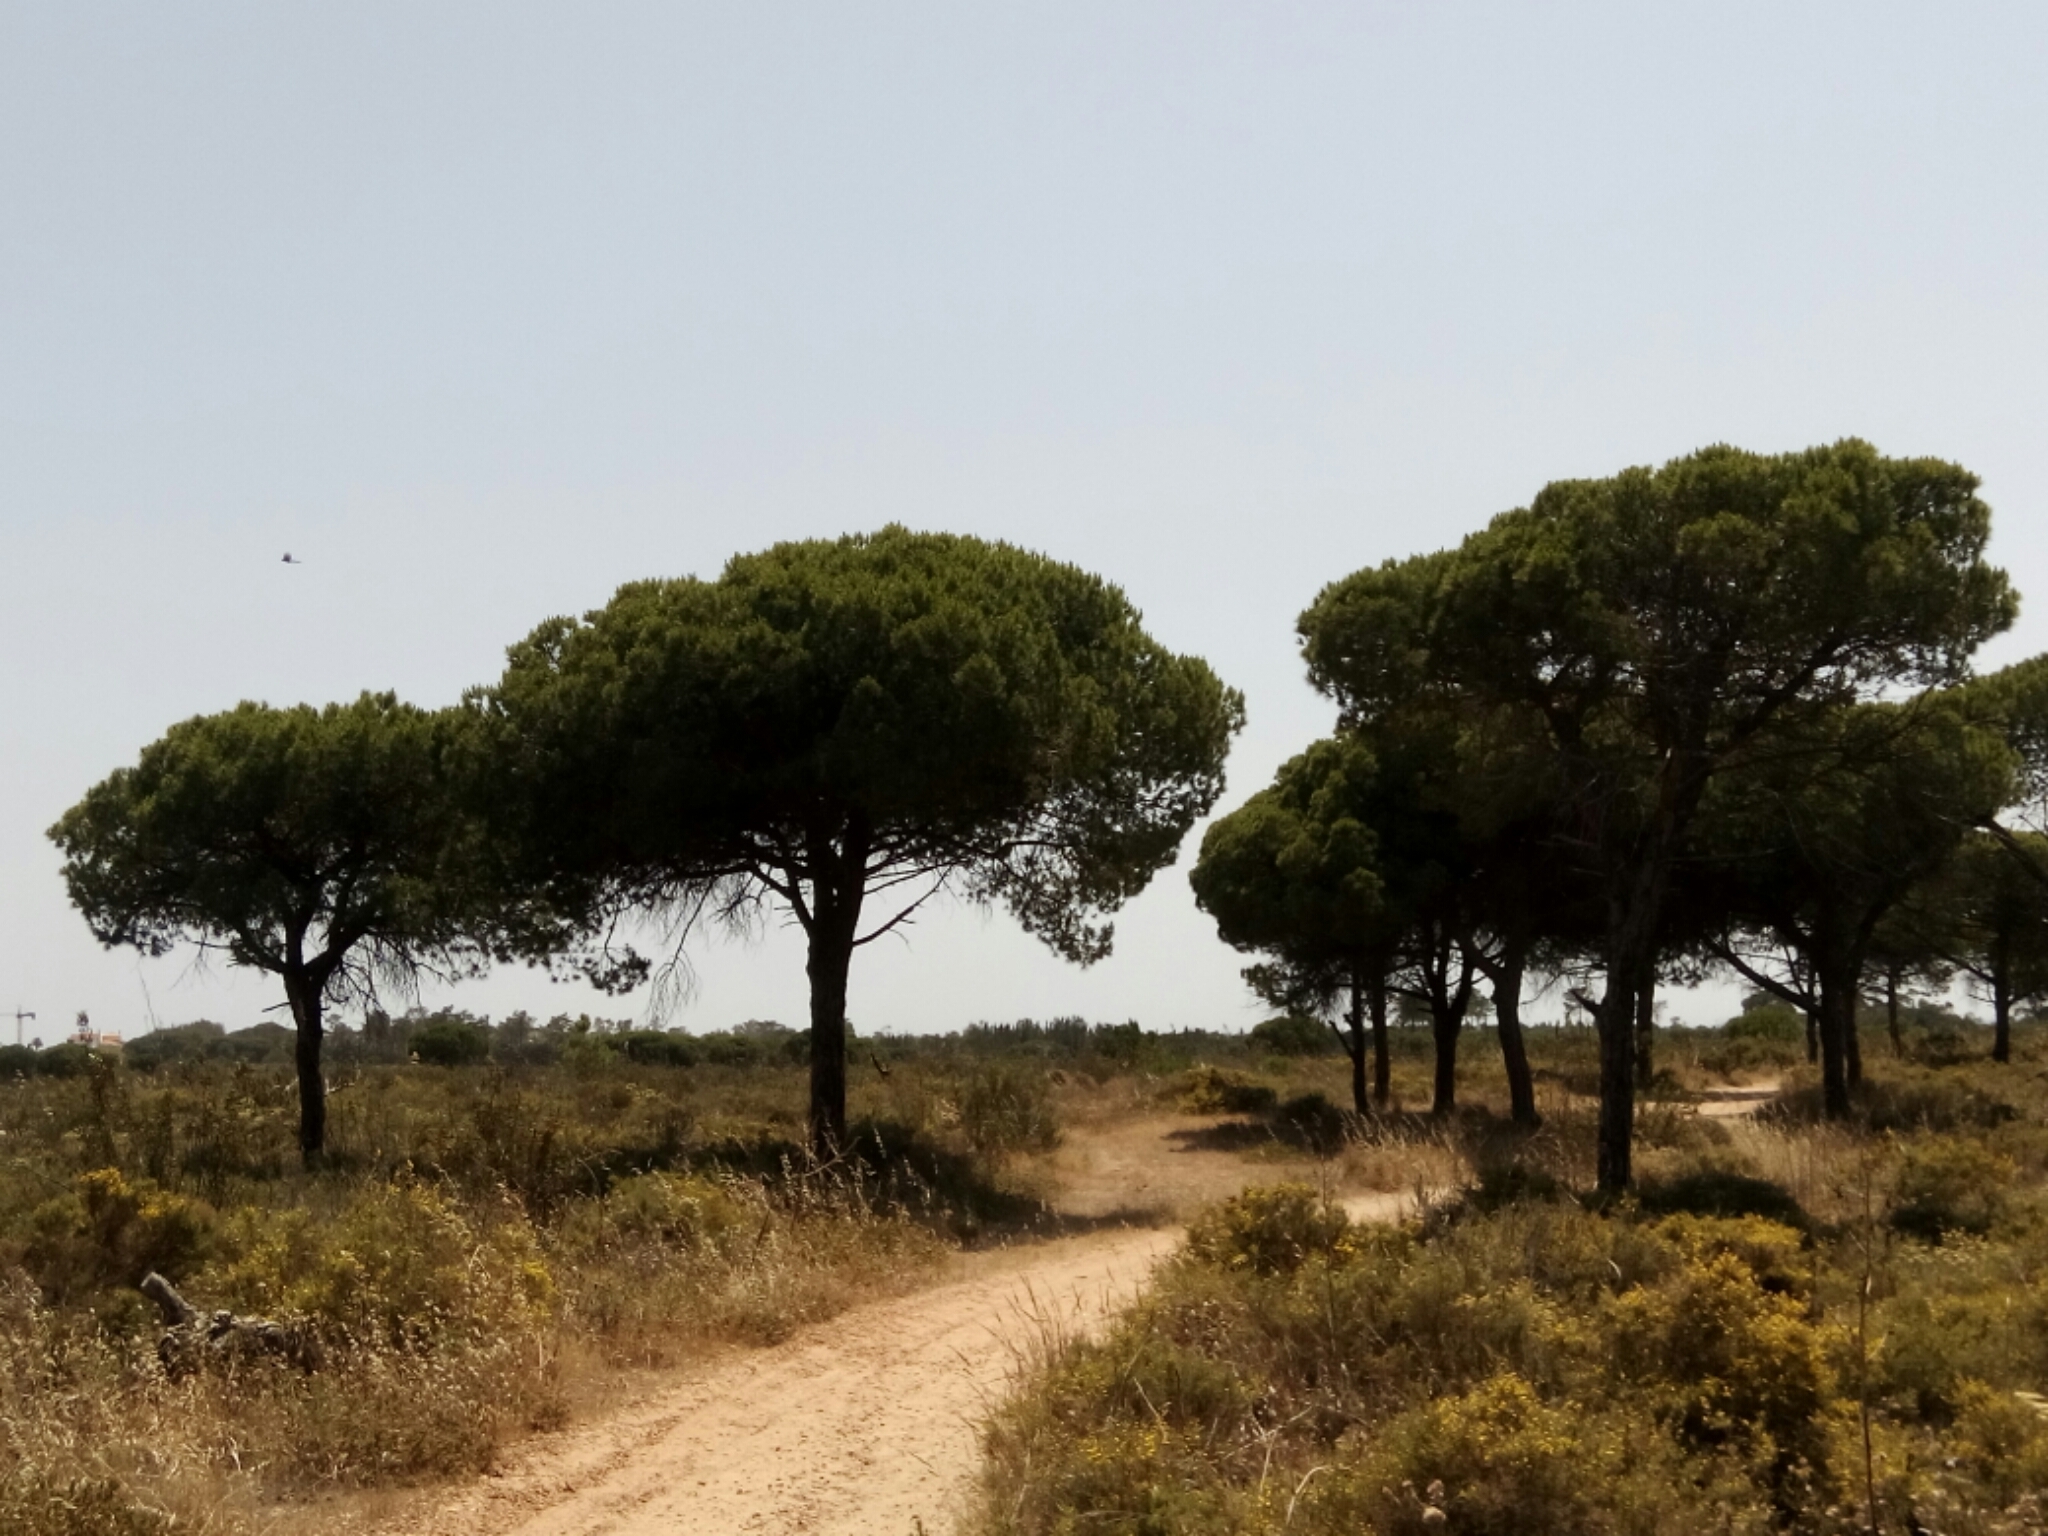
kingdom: Plantae
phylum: Tracheophyta
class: Pinopsida
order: Pinales
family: Pinaceae
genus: Pinus
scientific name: Pinus pinea
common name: Italian stone pine
